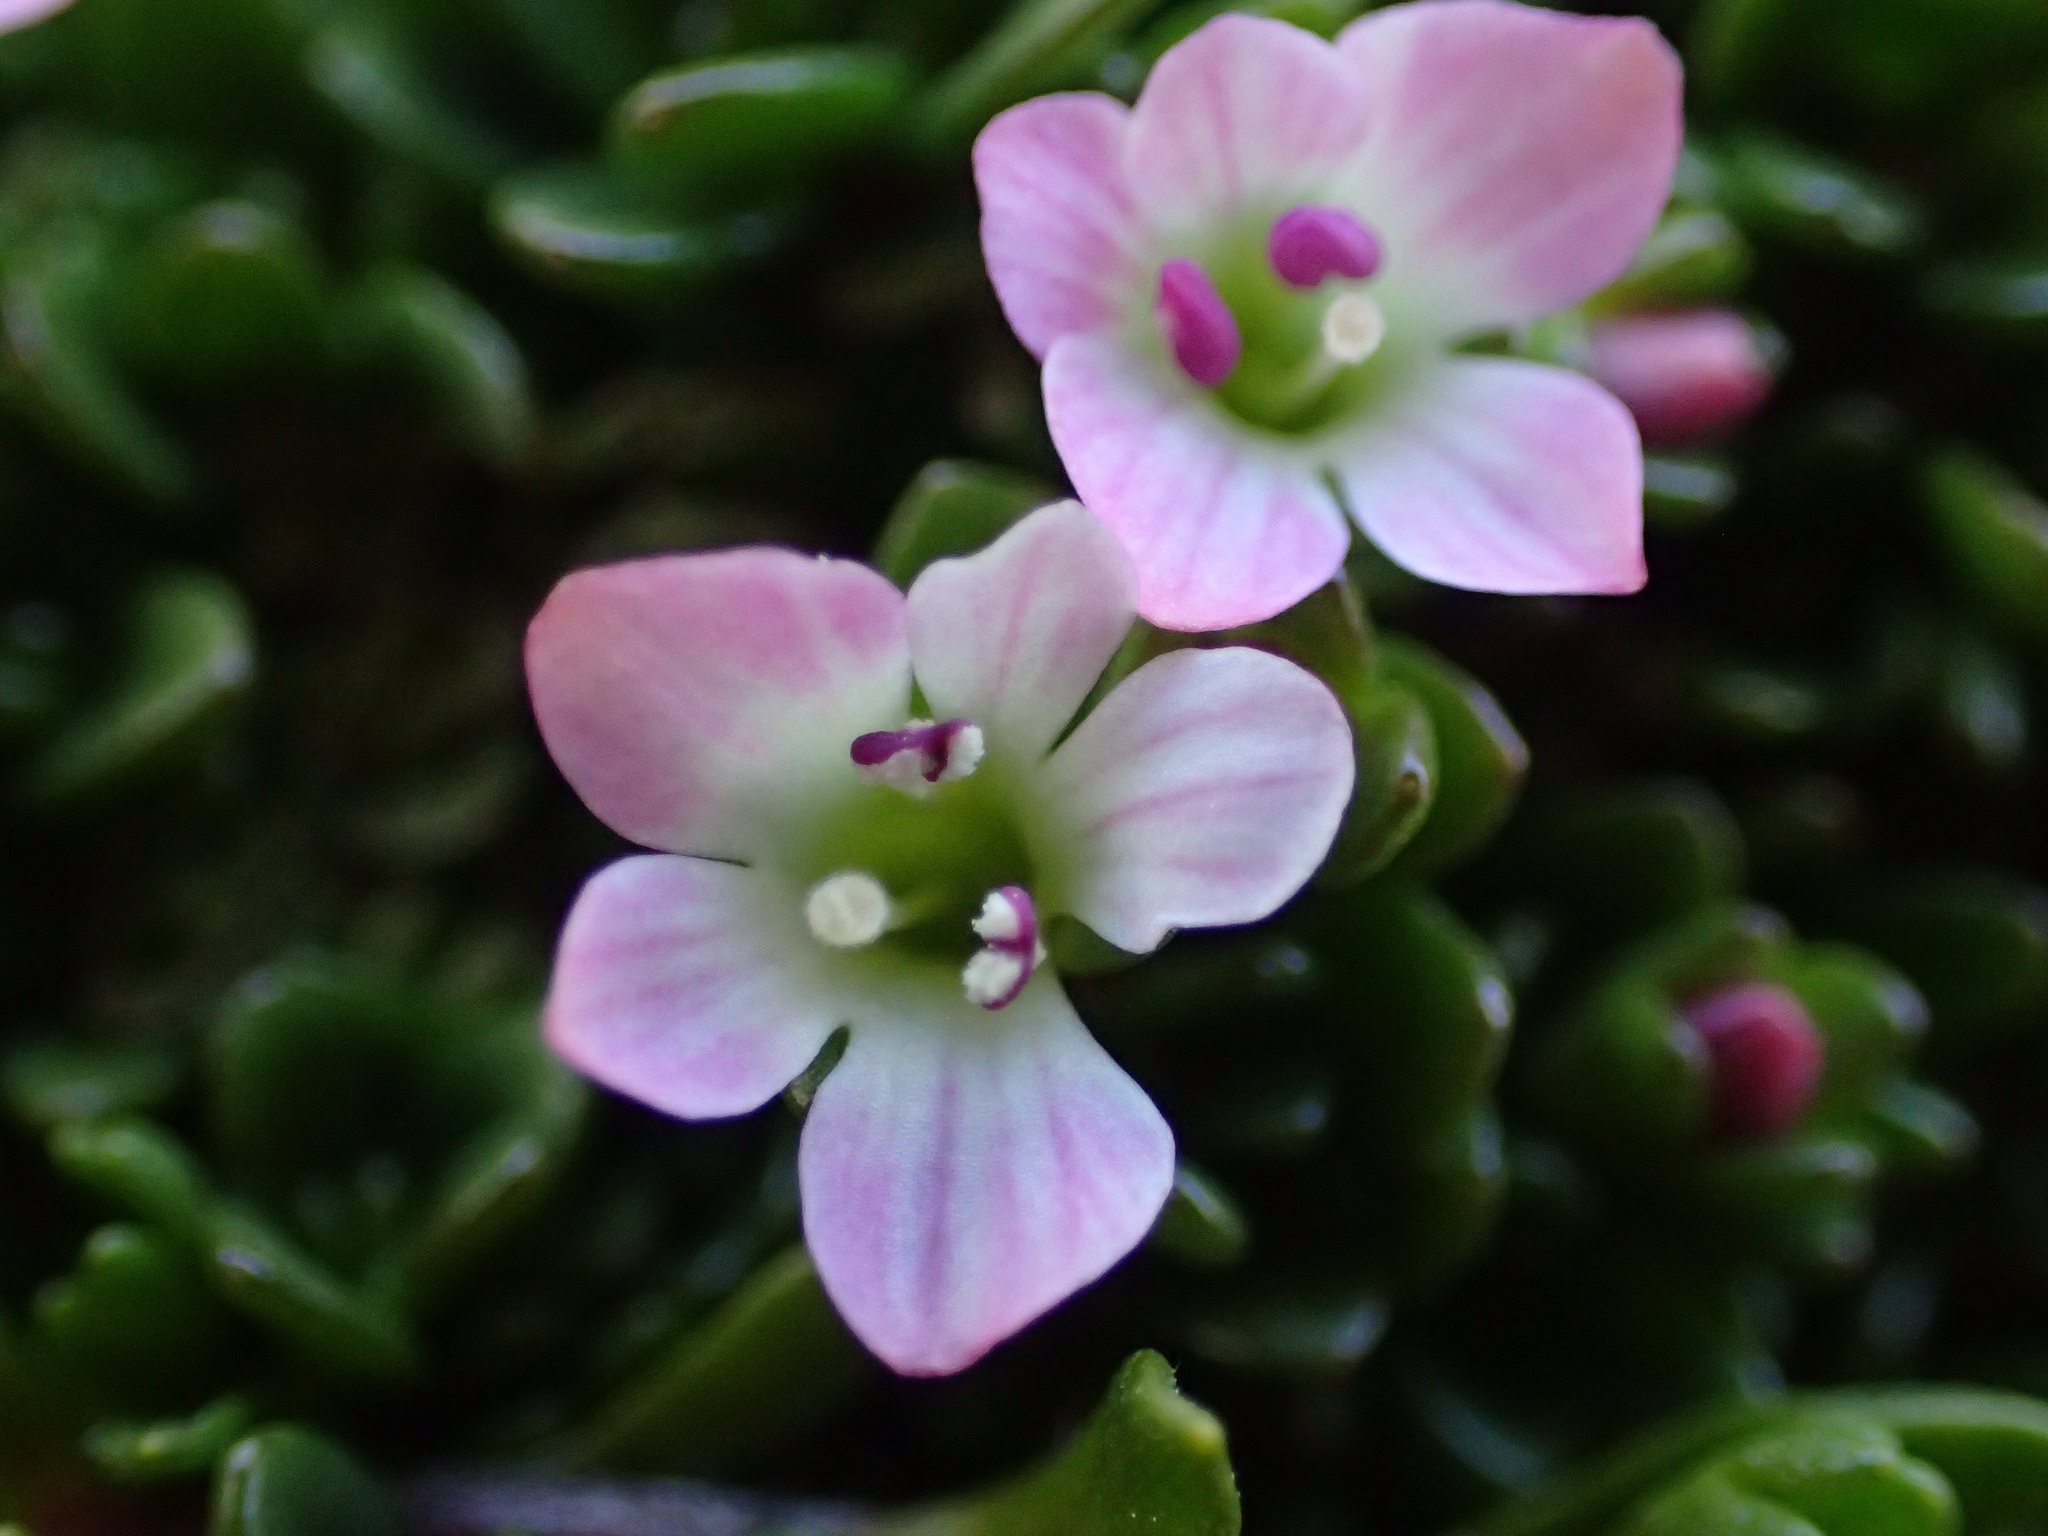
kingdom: Plantae
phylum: Tracheophyta
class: Magnoliopsida
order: Lamiales
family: Plantaginaceae
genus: Veronica
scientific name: Veronica planopetiolata
